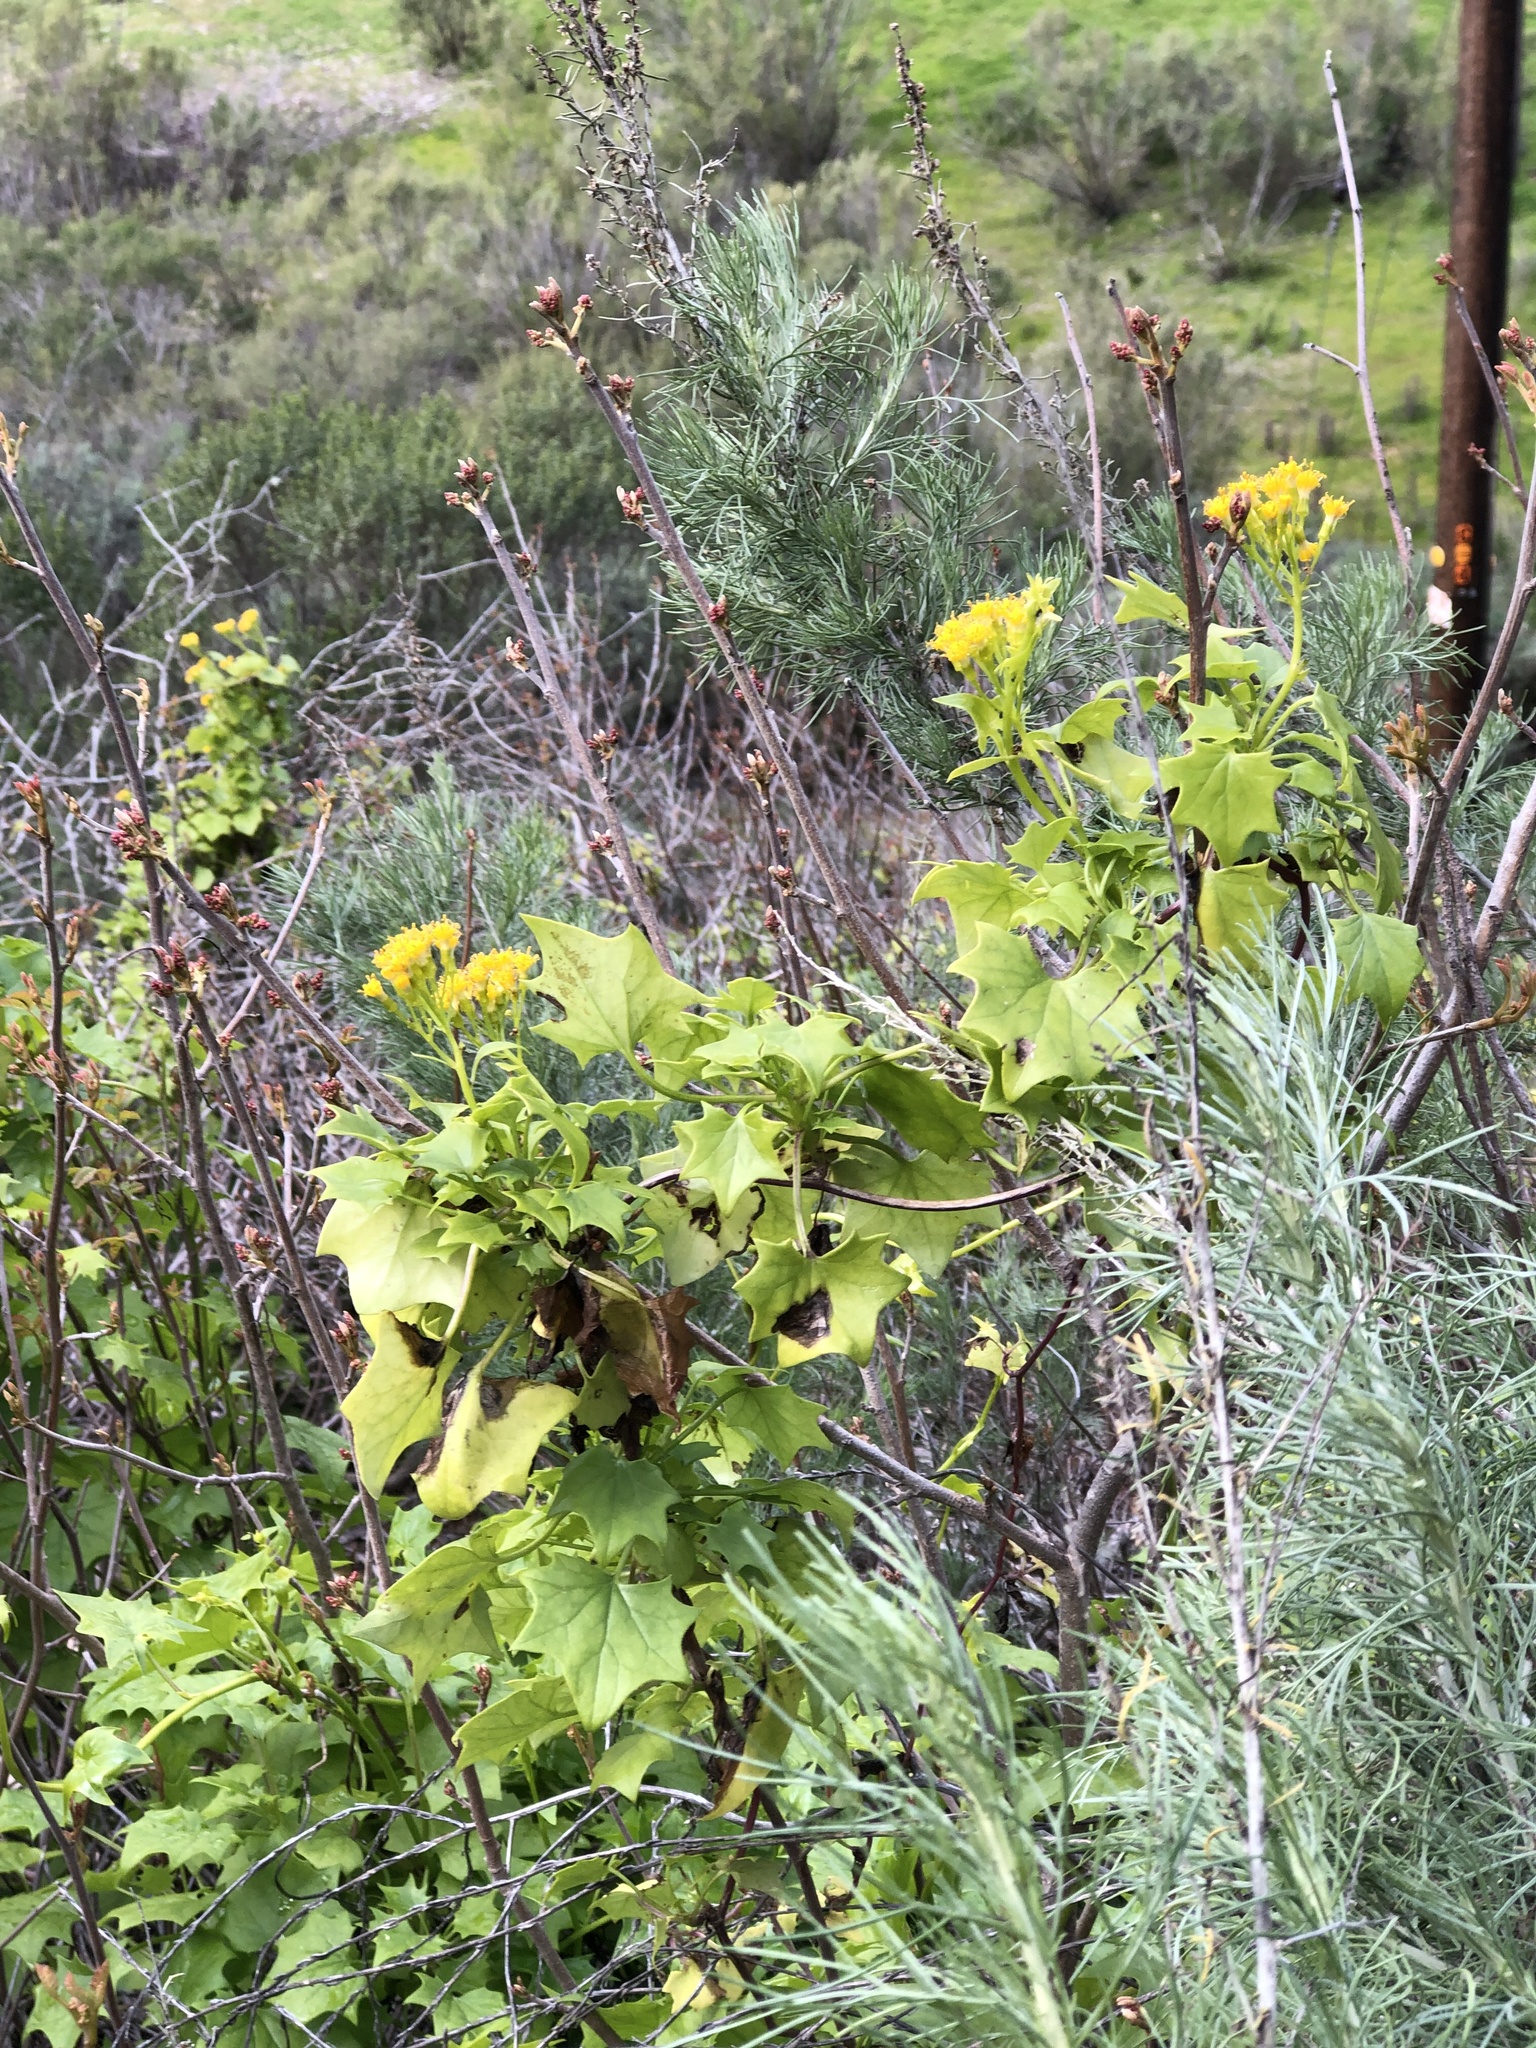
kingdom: Plantae
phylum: Tracheophyta
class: Magnoliopsida
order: Asterales
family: Asteraceae
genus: Delairea
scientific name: Delairea odorata
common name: Cape-ivy
